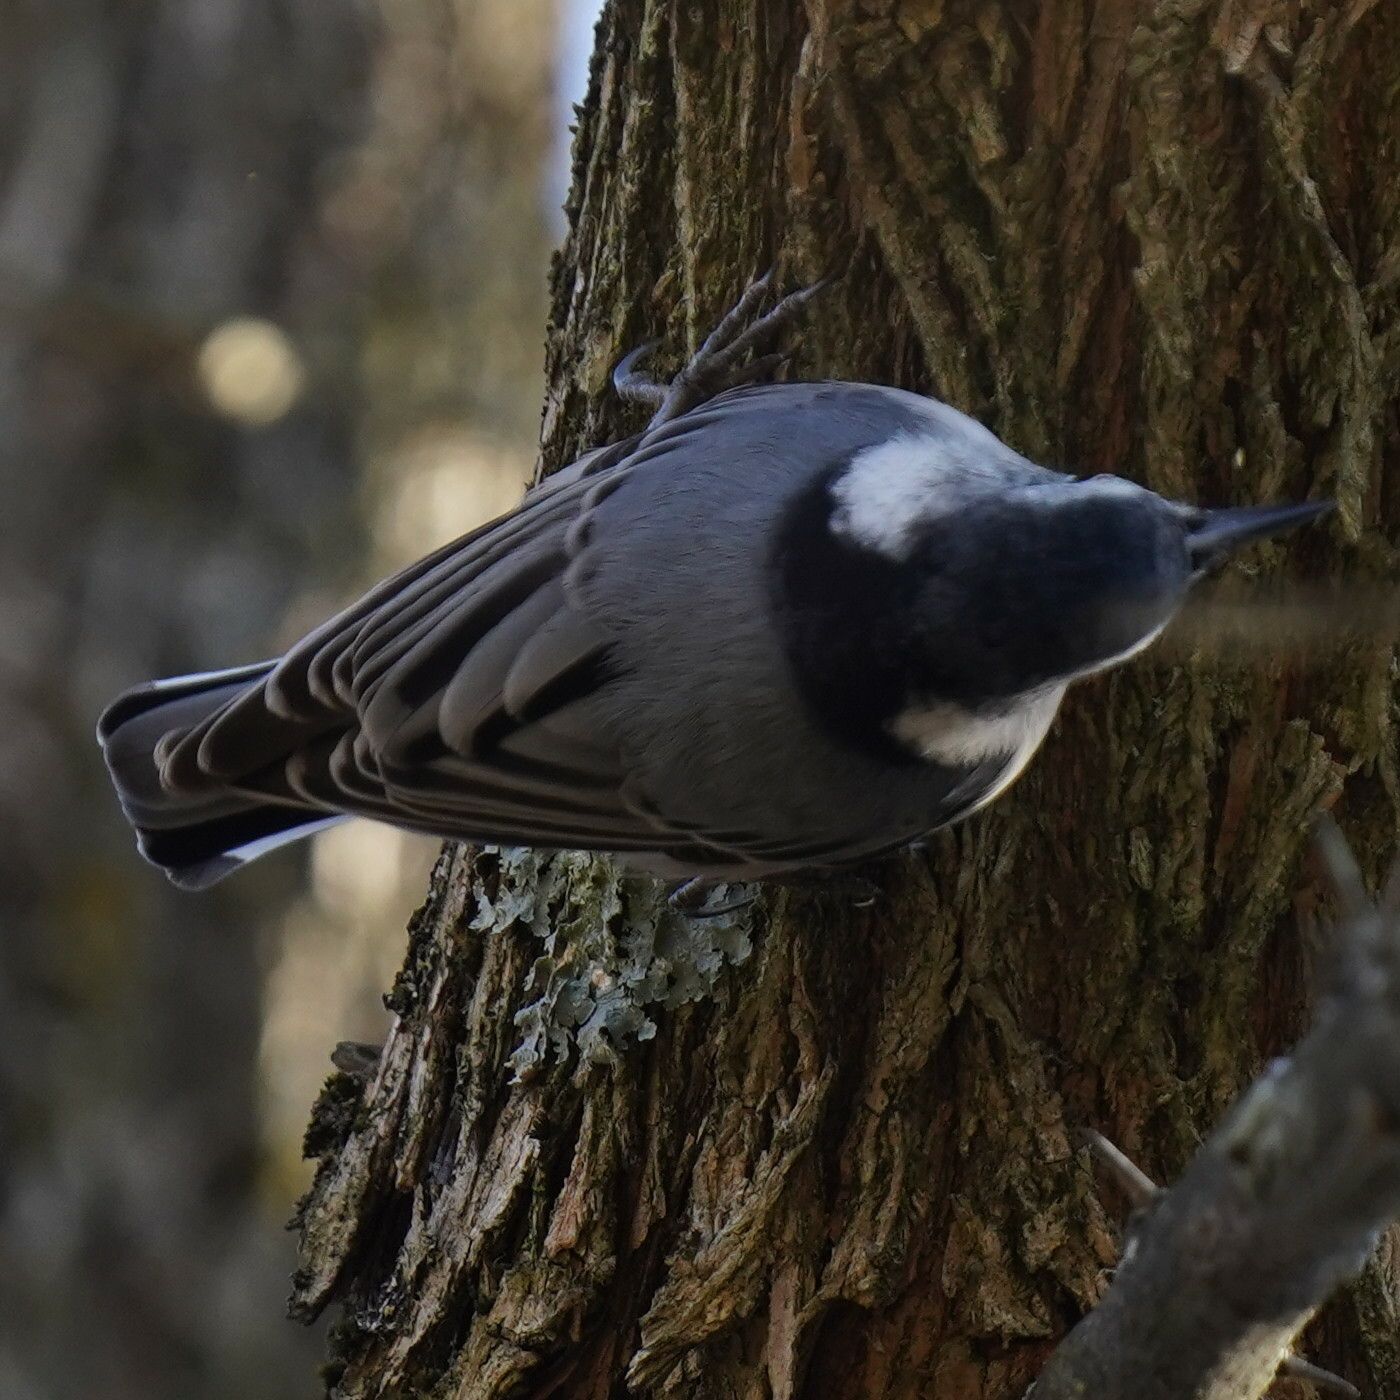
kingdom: Animalia
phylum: Chordata
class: Aves
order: Passeriformes
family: Sittidae
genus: Sitta
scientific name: Sitta carolinensis
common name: White-breasted nuthatch
